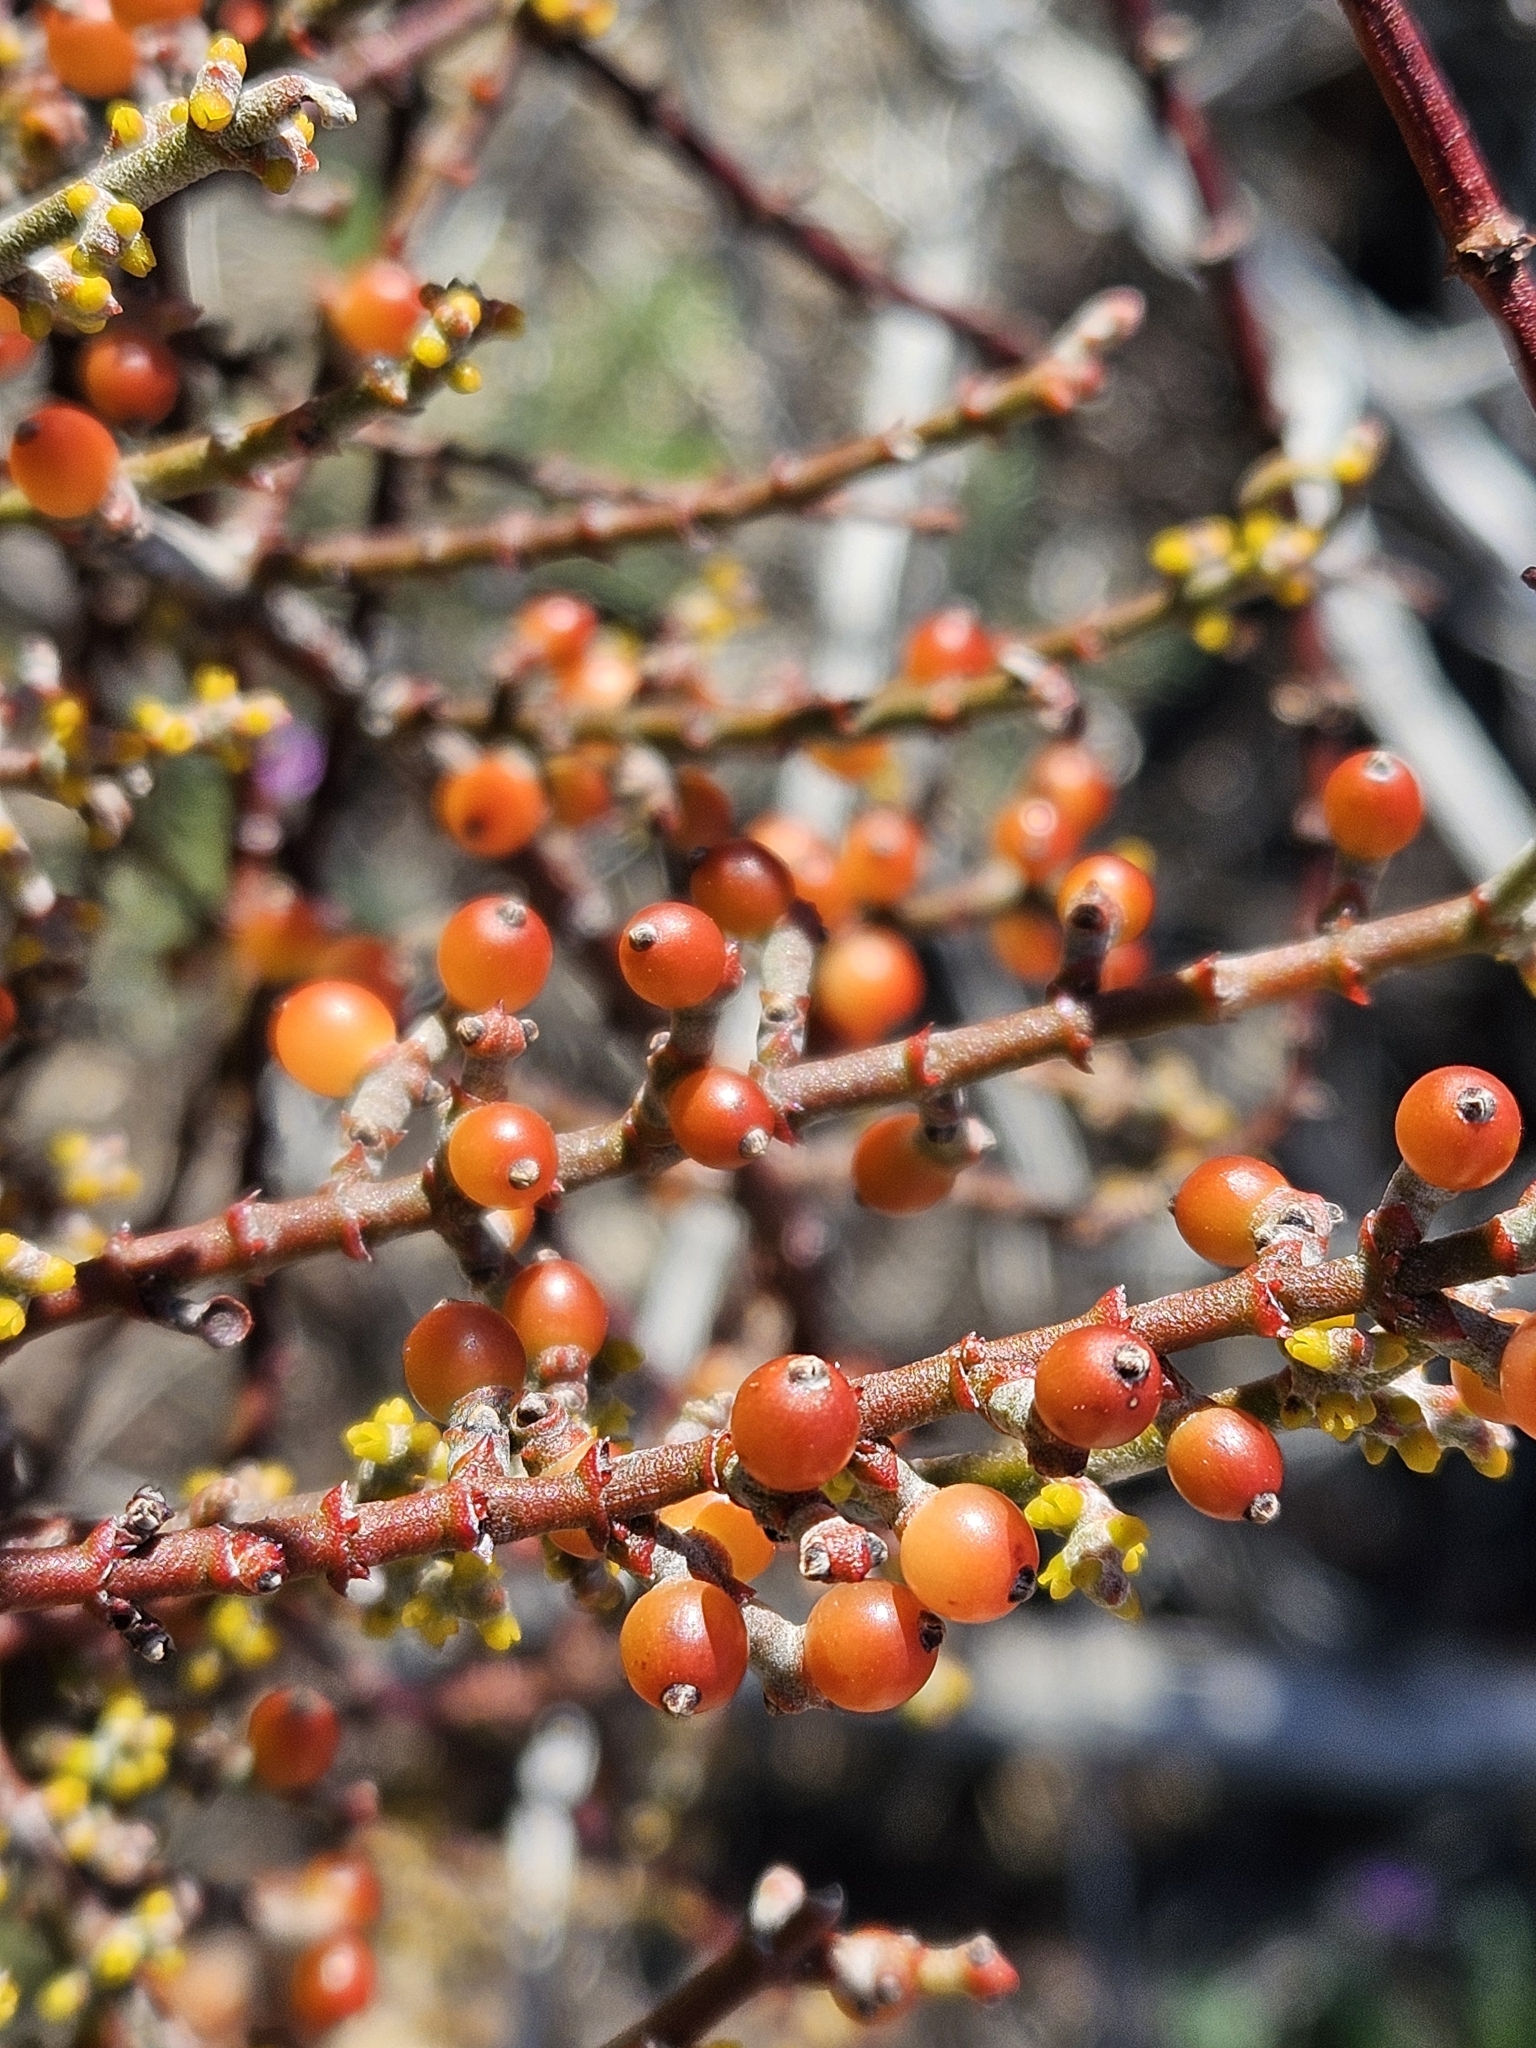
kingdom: Plantae
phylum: Tracheophyta
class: Magnoliopsida
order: Santalales
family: Viscaceae
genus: Phoradendron
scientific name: Phoradendron californicum
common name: Acacia mistletoe
